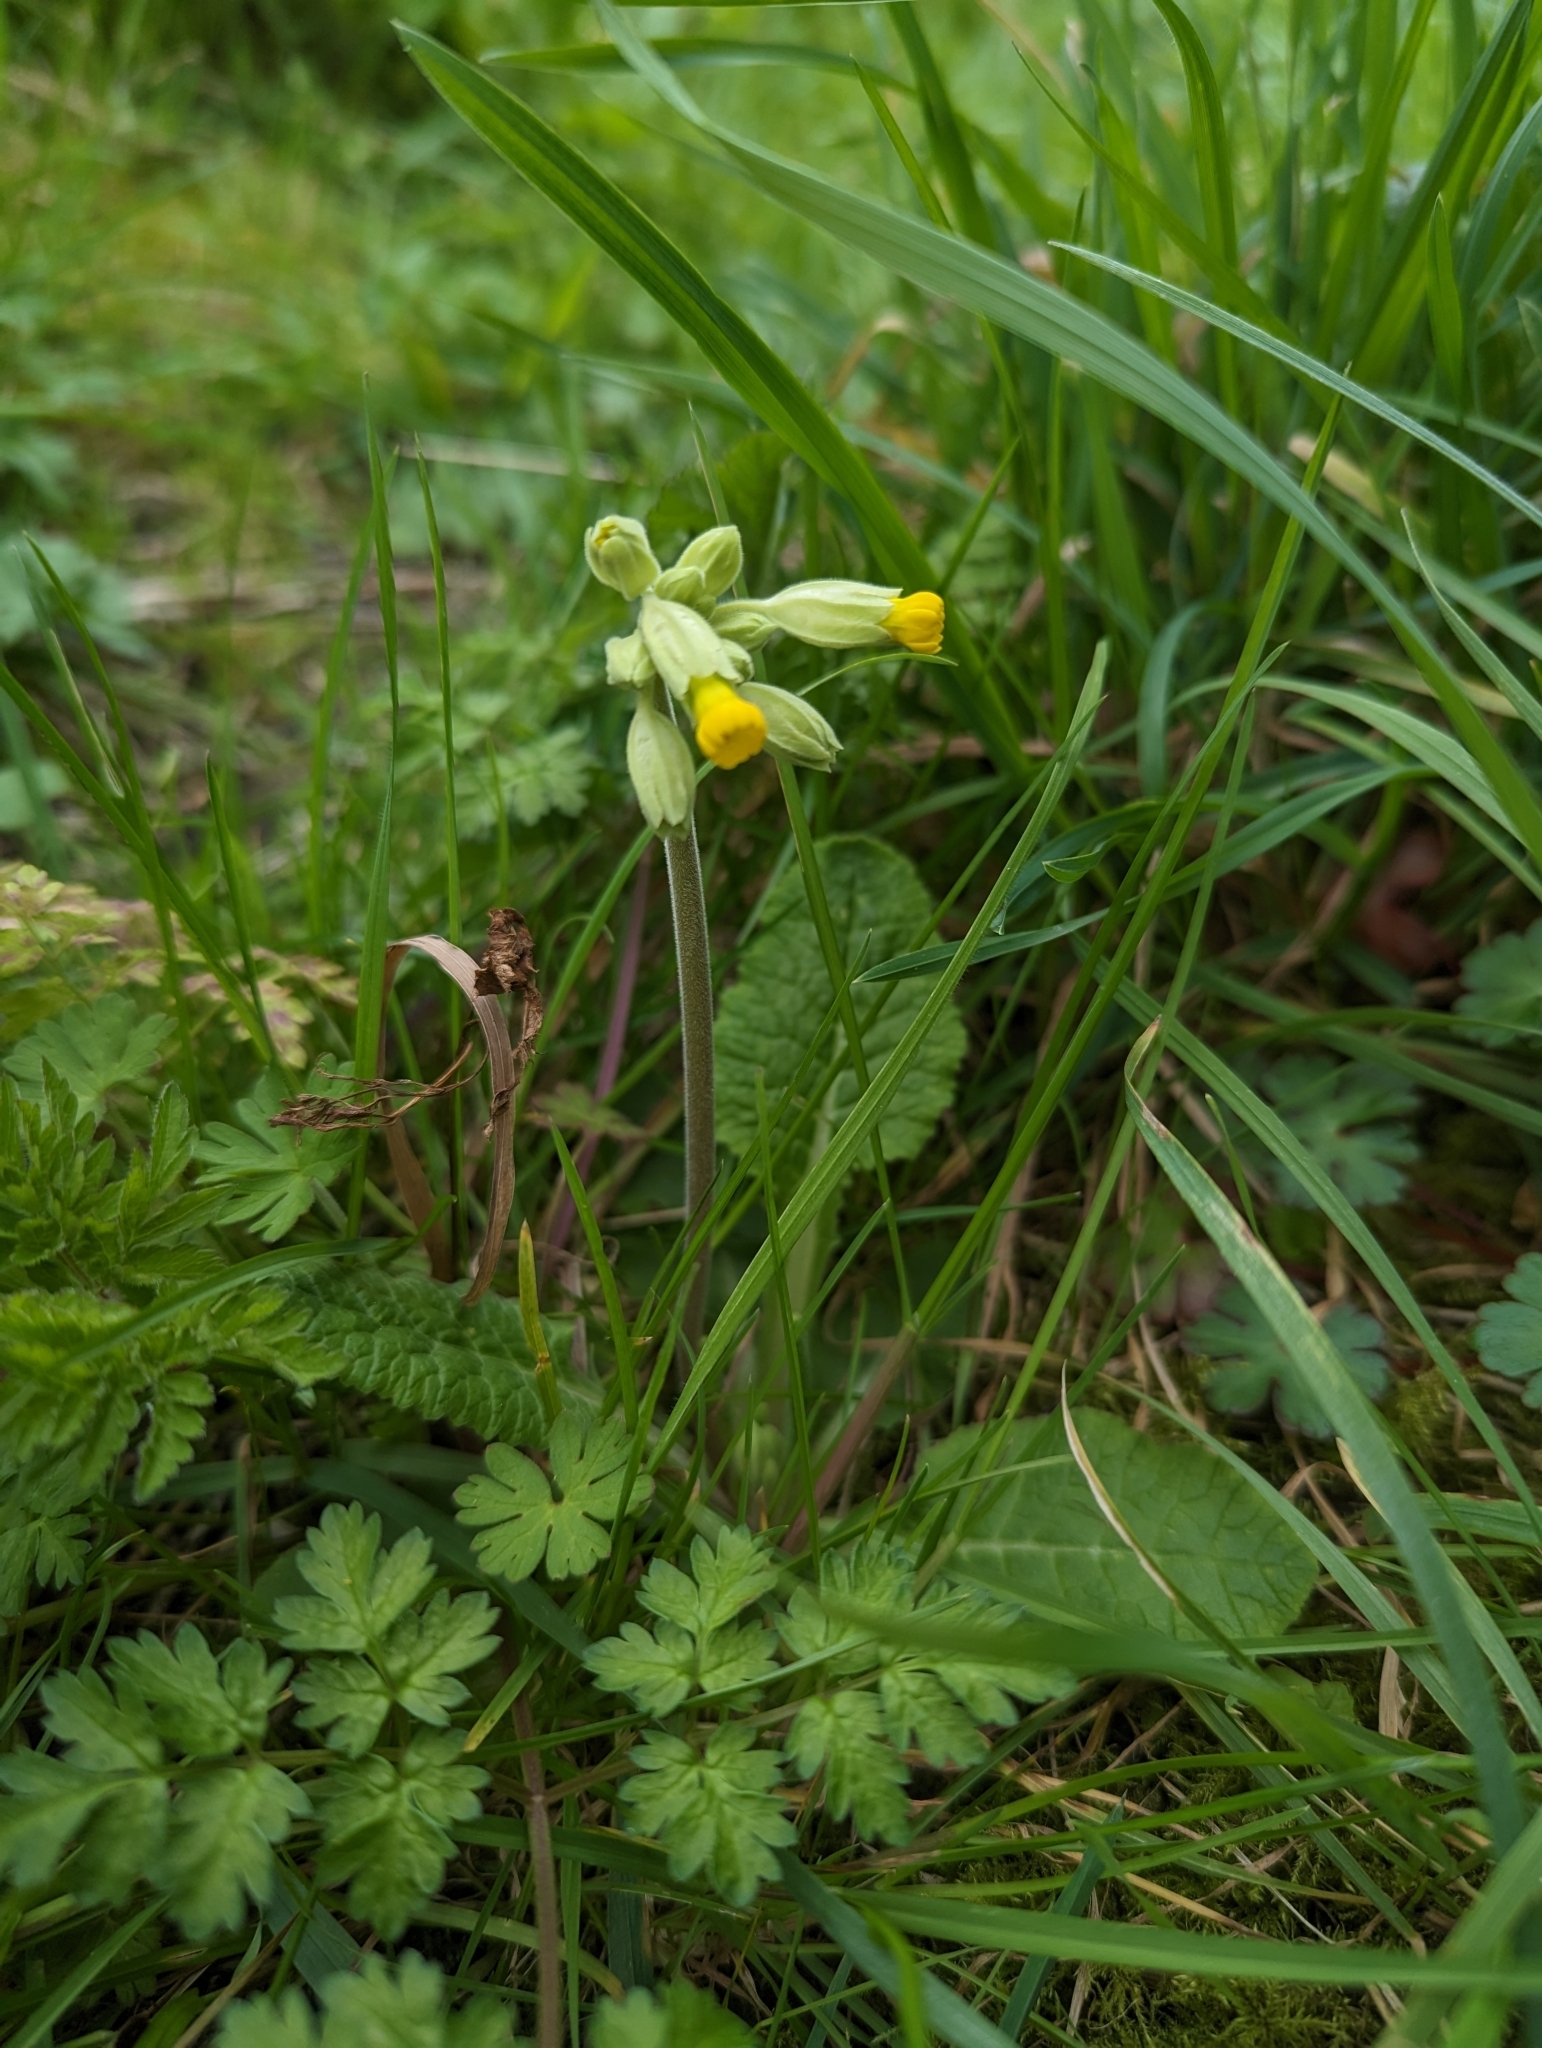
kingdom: Plantae
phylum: Tracheophyta
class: Magnoliopsida
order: Ericales
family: Primulaceae
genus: Primula
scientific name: Primula veris
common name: Cowslip
